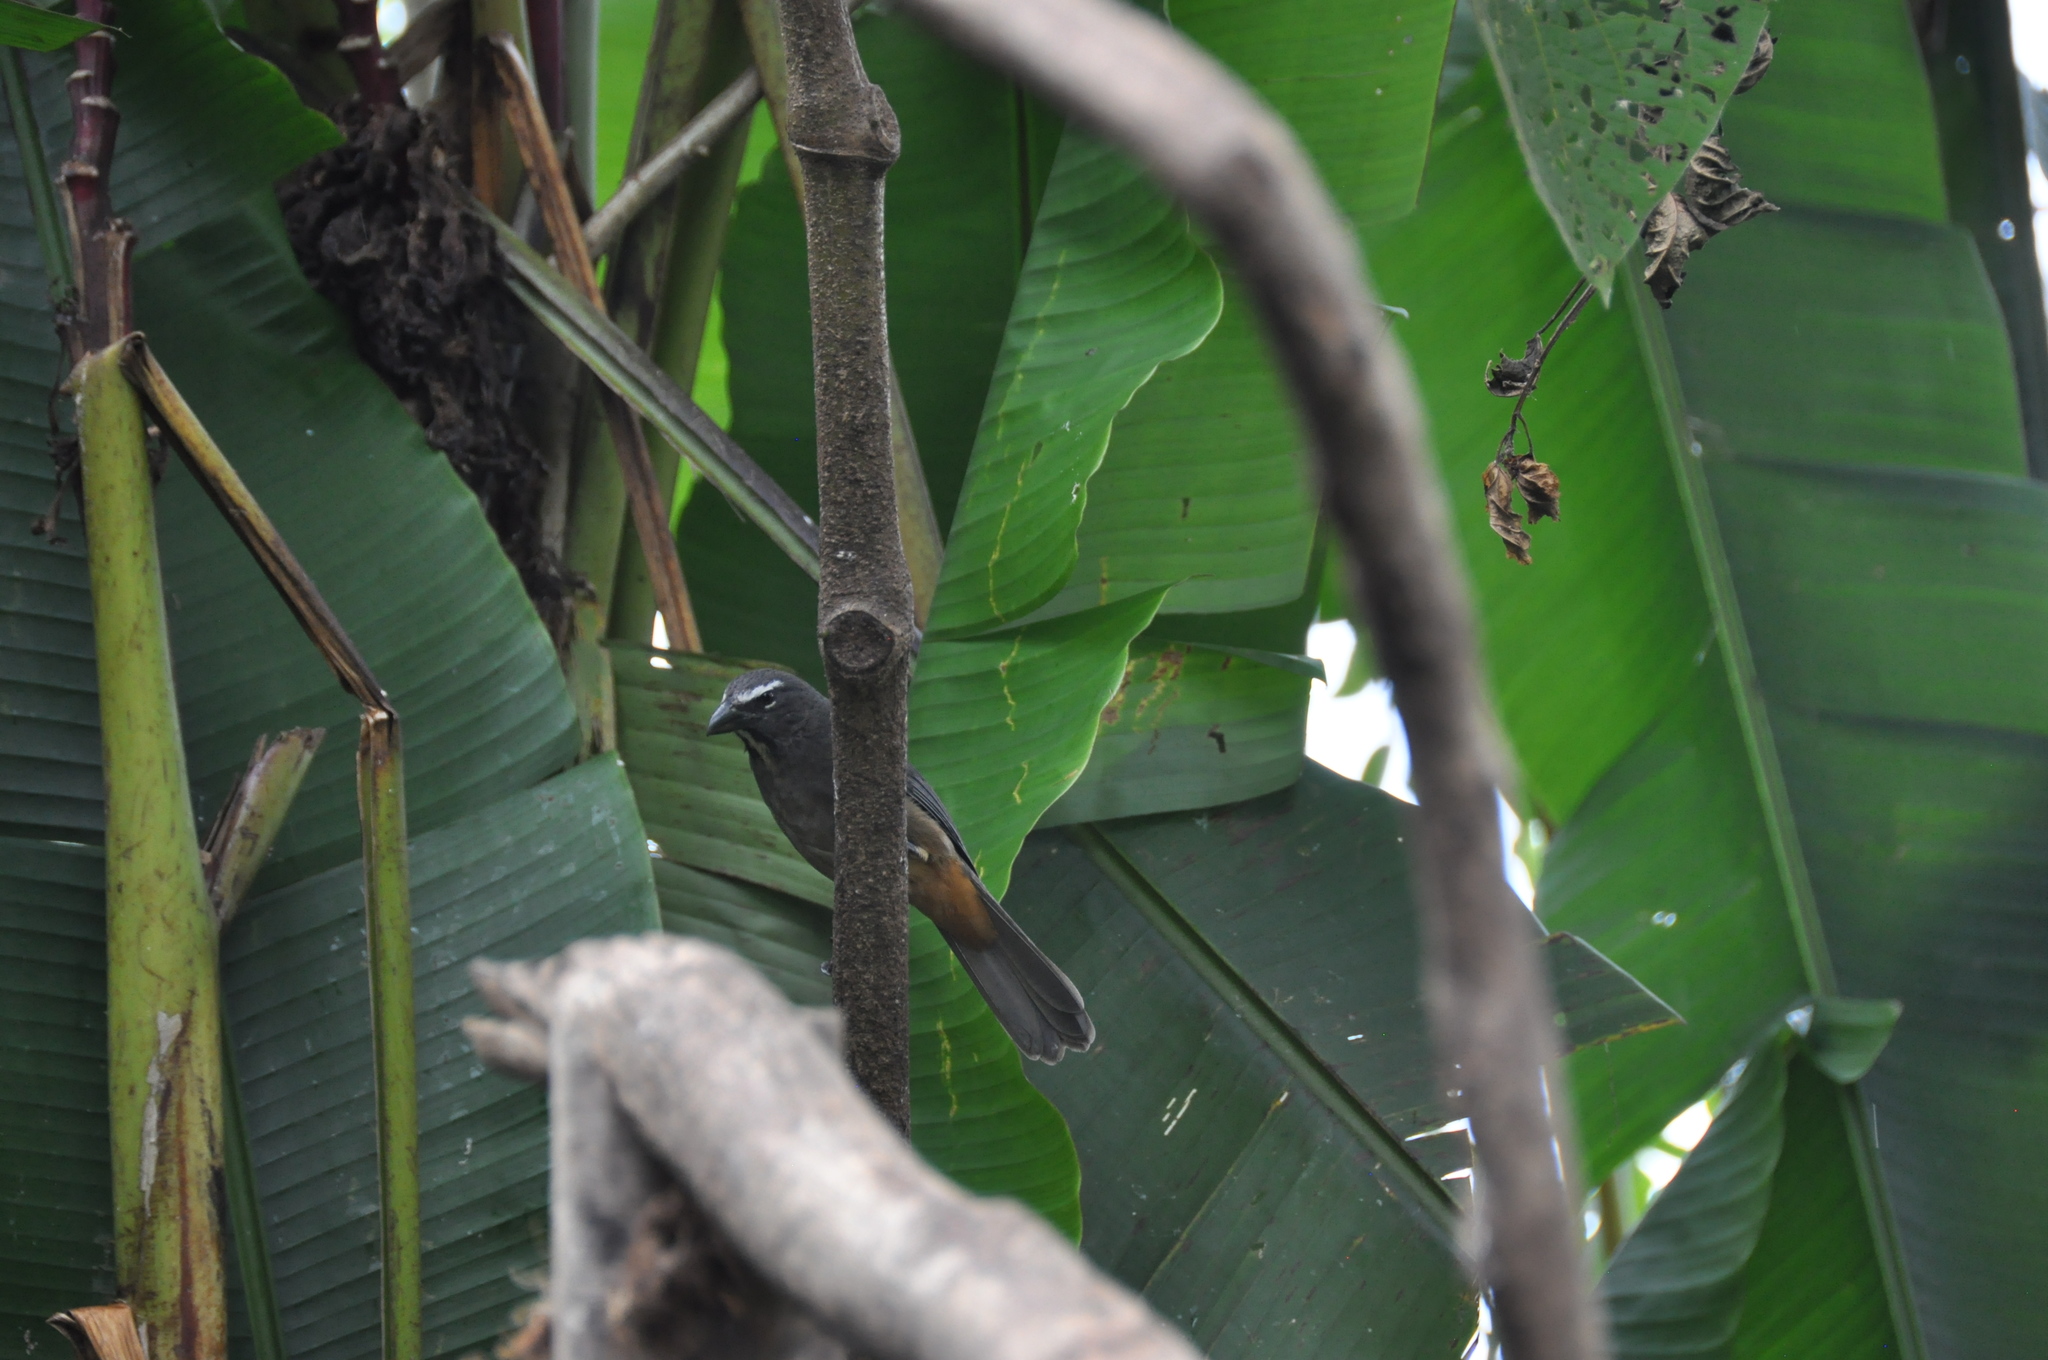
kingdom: Animalia
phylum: Chordata
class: Aves
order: Passeriformes
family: Thraupidae
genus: Saltator
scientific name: Saltator grandis
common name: Cinnamon-bellied saltator
